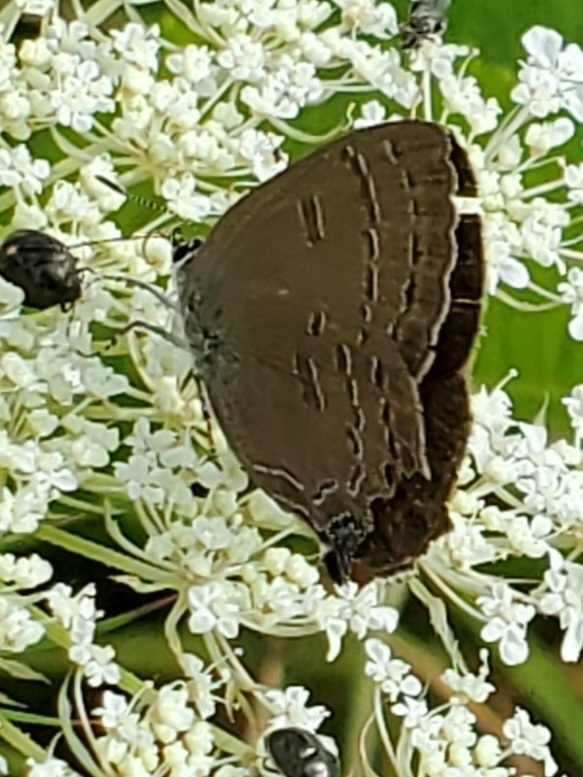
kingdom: Animalia
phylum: Arthropoda
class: Insecta
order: Lepidoptera
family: Lycaenidae
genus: Satyrium
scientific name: Satyrium calanus
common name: Banded hairstreak
